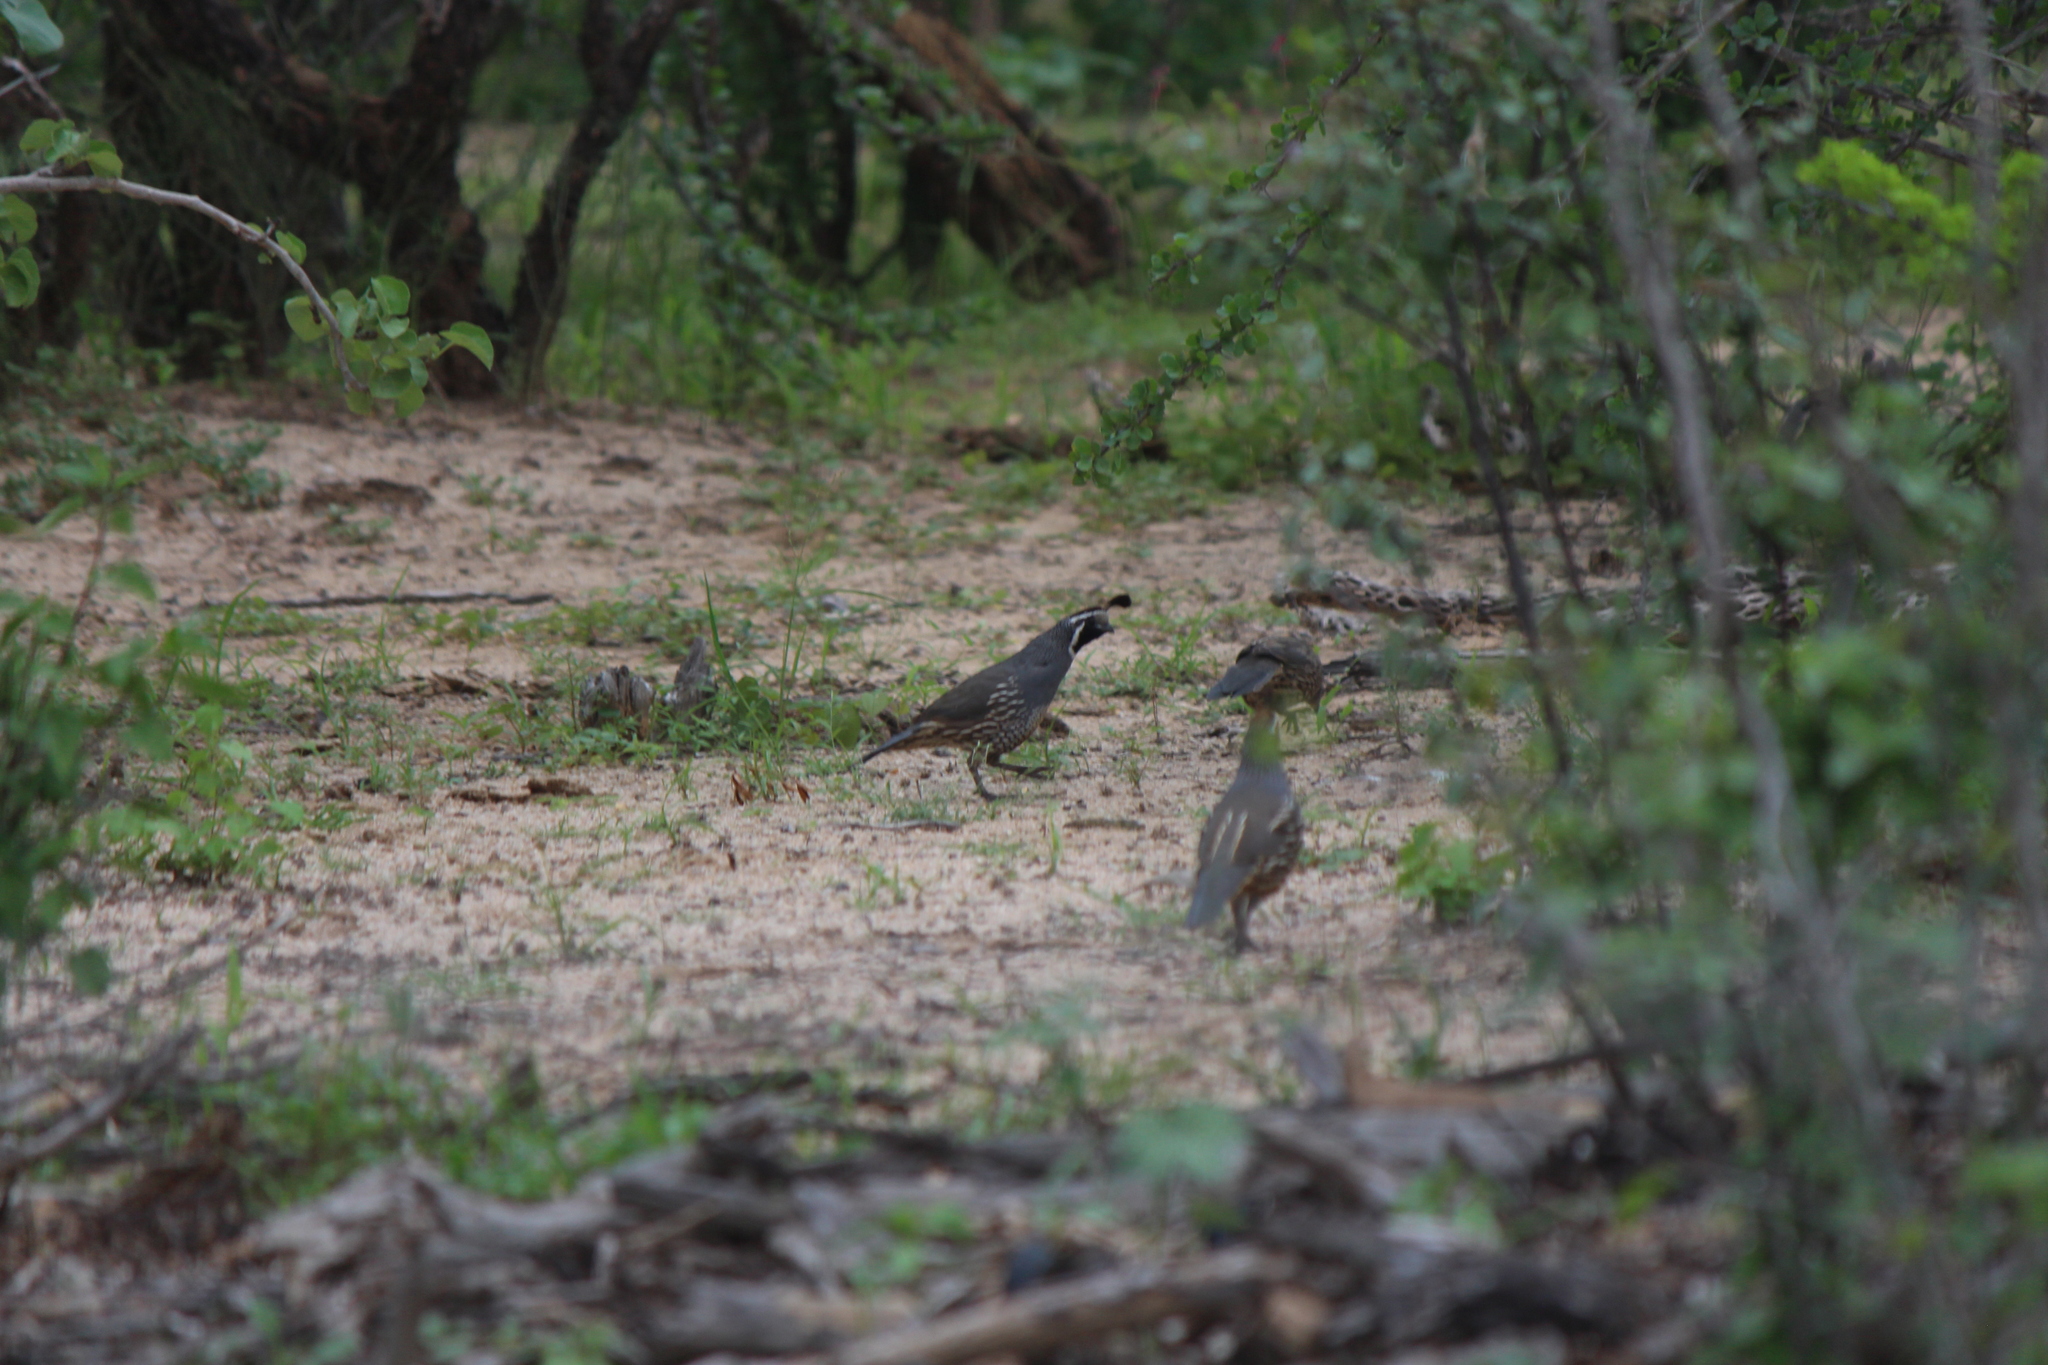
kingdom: Animalia
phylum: Chordata
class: Aves
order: Galliformes
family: Odontophoridae
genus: Callipepla
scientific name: Callipepla californica
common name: California quail
